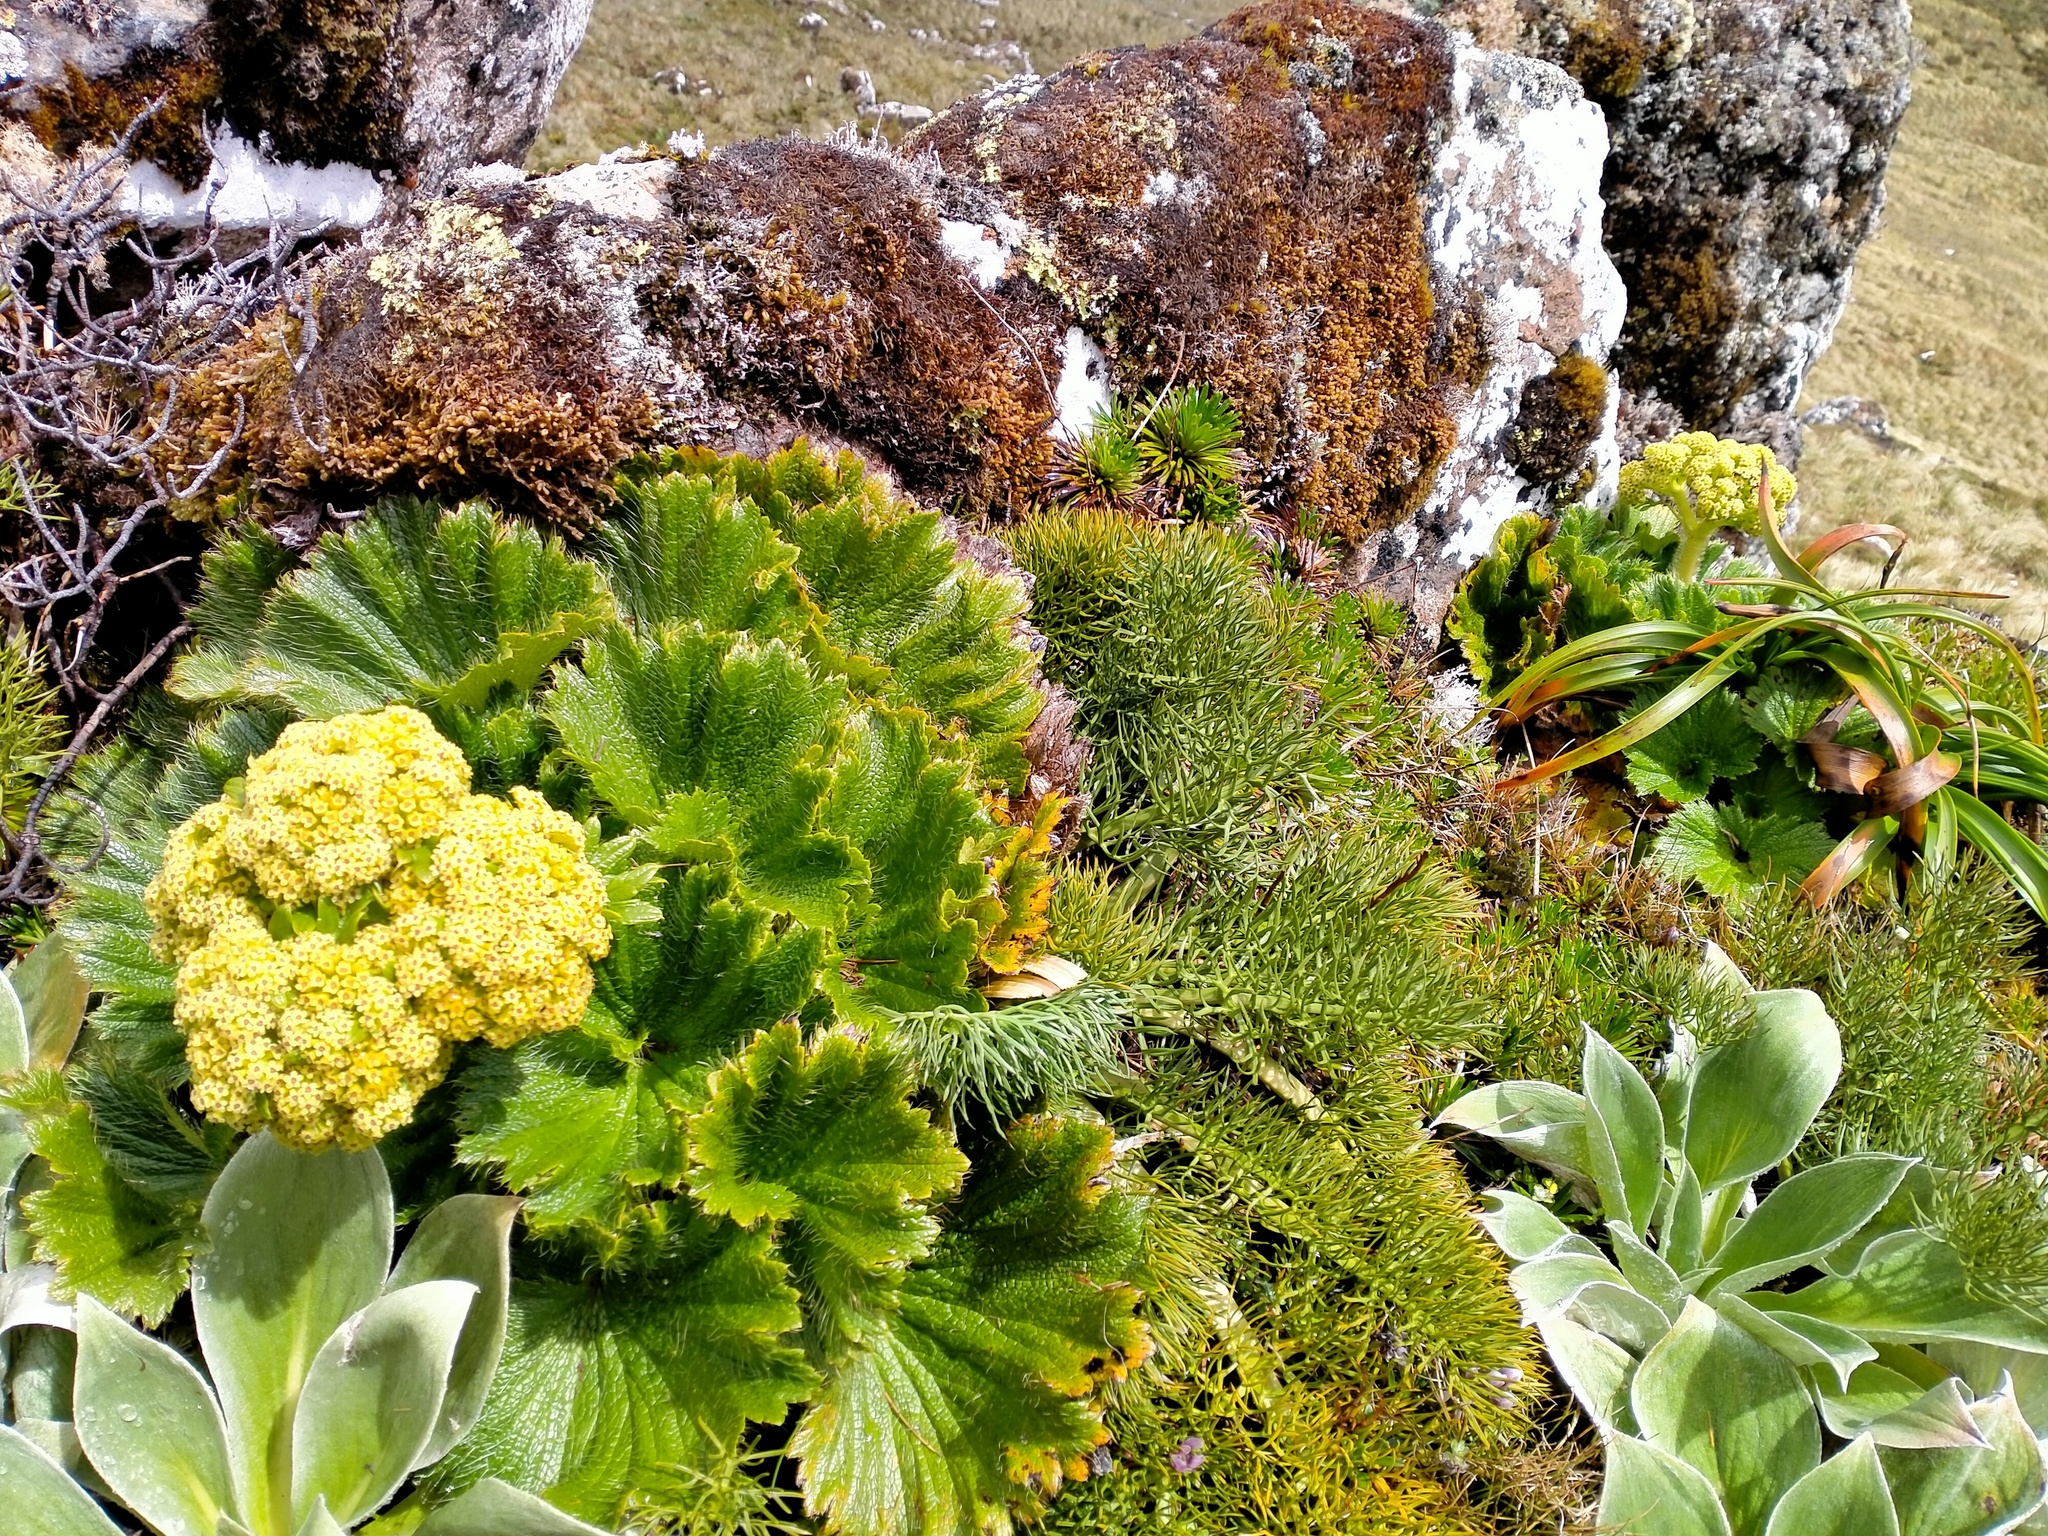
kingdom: Plantae
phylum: Tracheophyta
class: Magnoliopsida
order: Apiales
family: Apiaceae
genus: Azorella
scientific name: Azorella polaris
